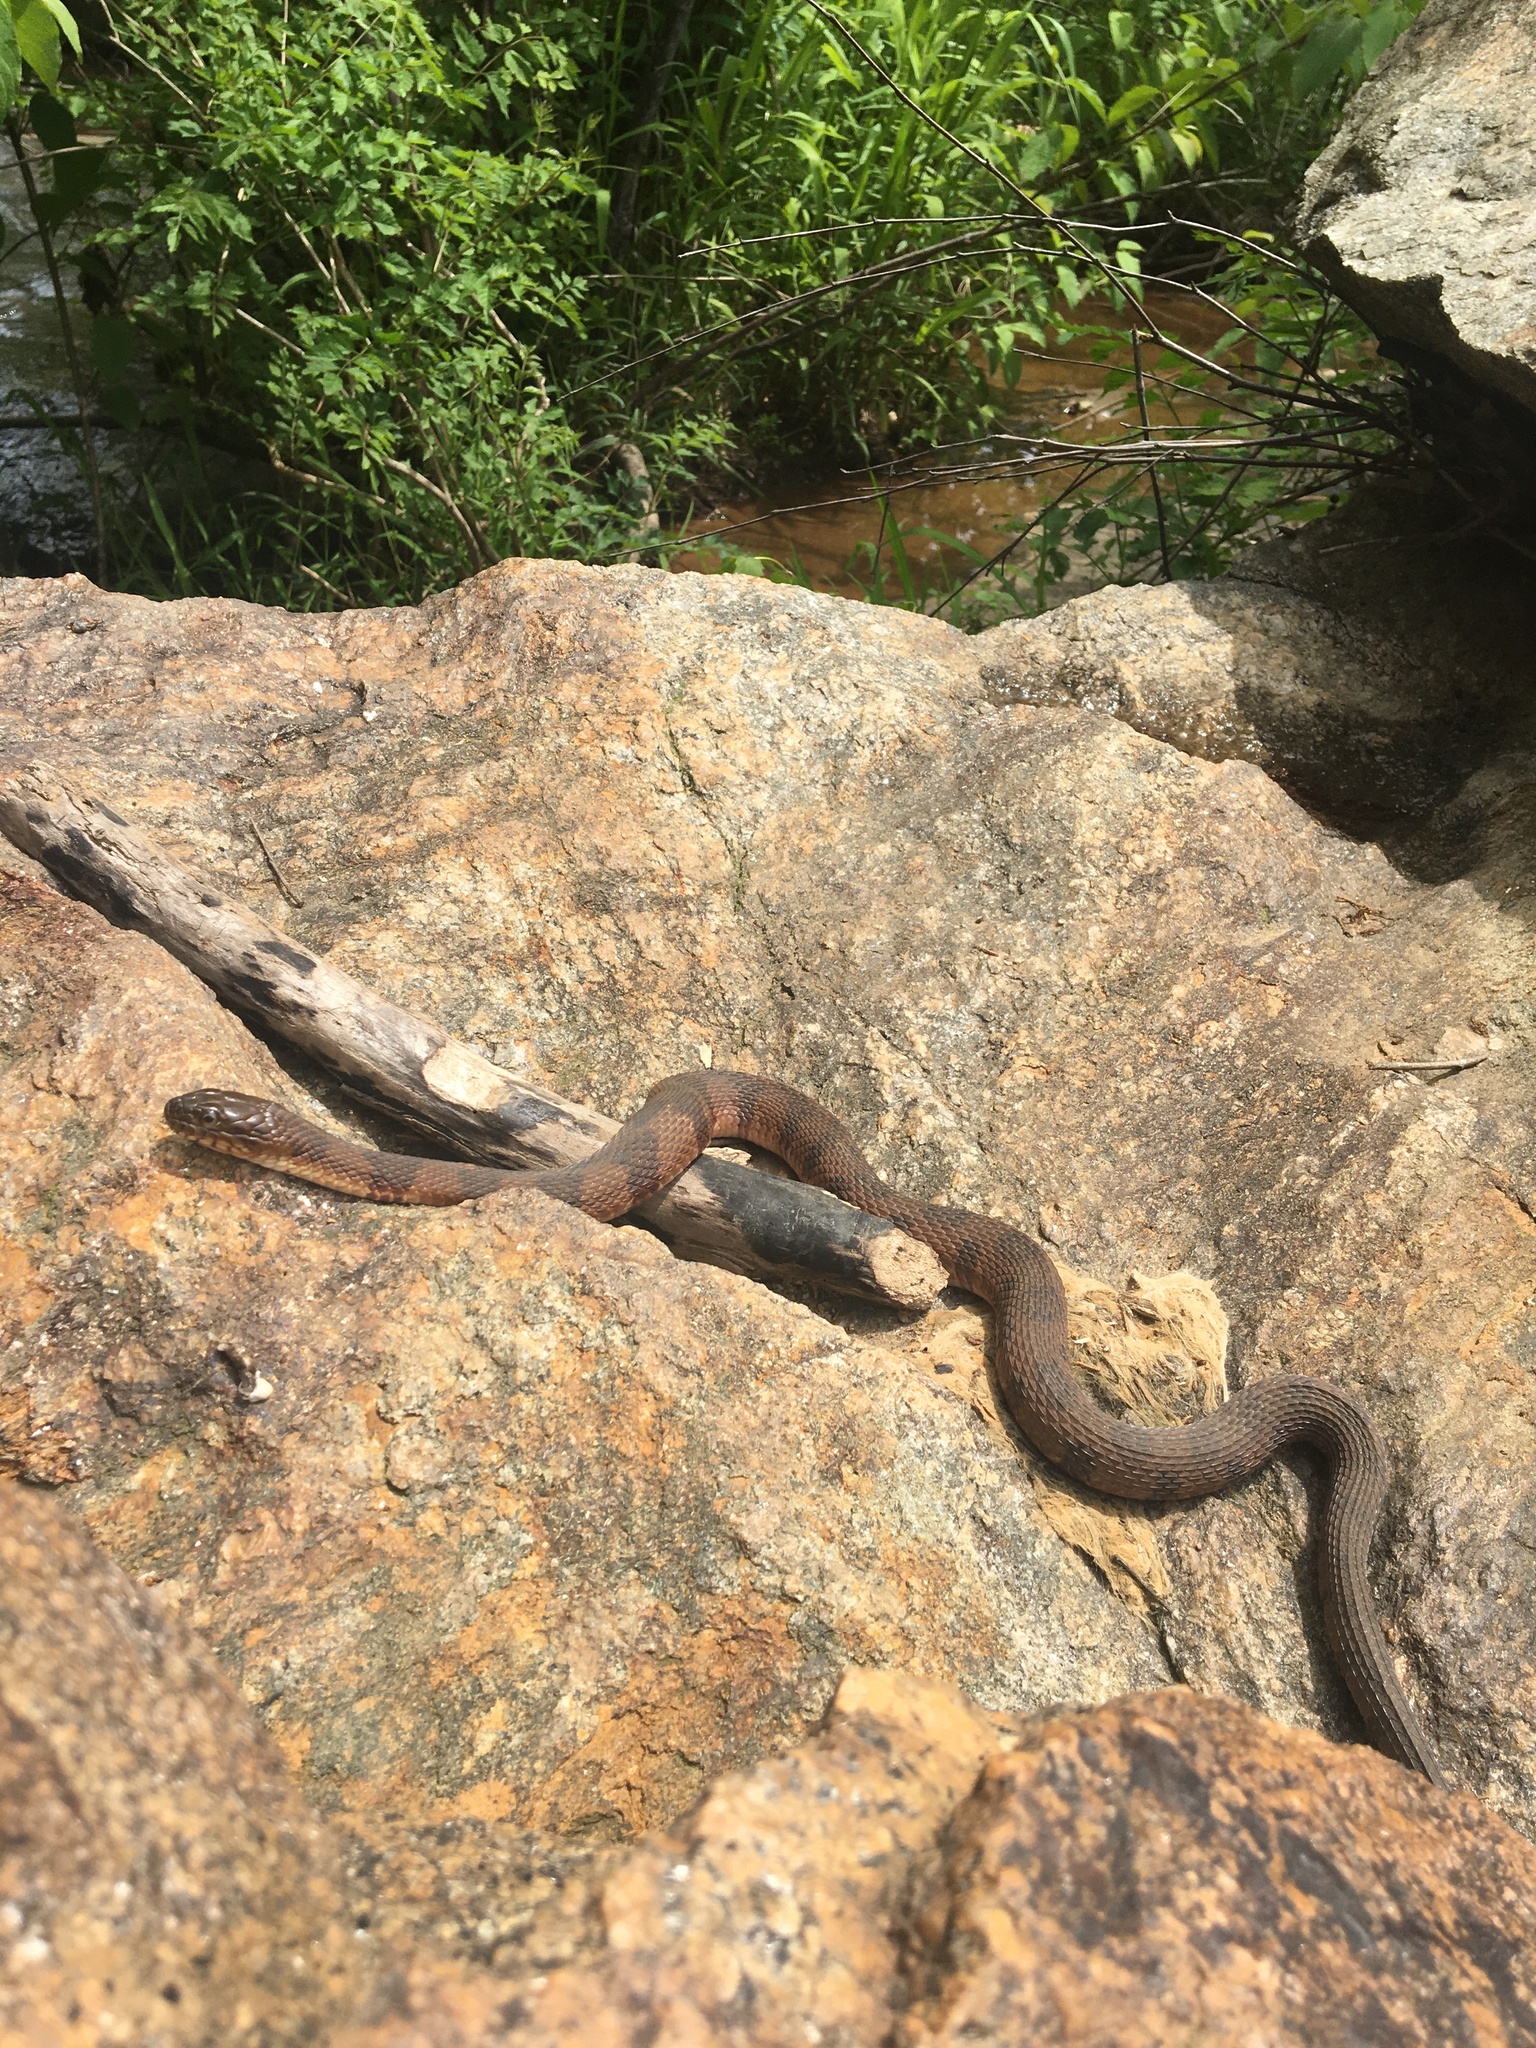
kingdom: Animalia
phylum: Chordata
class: Squamata
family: Colubridae
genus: Nerodia
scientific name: Nerodia sipedon
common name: Northern water snake
